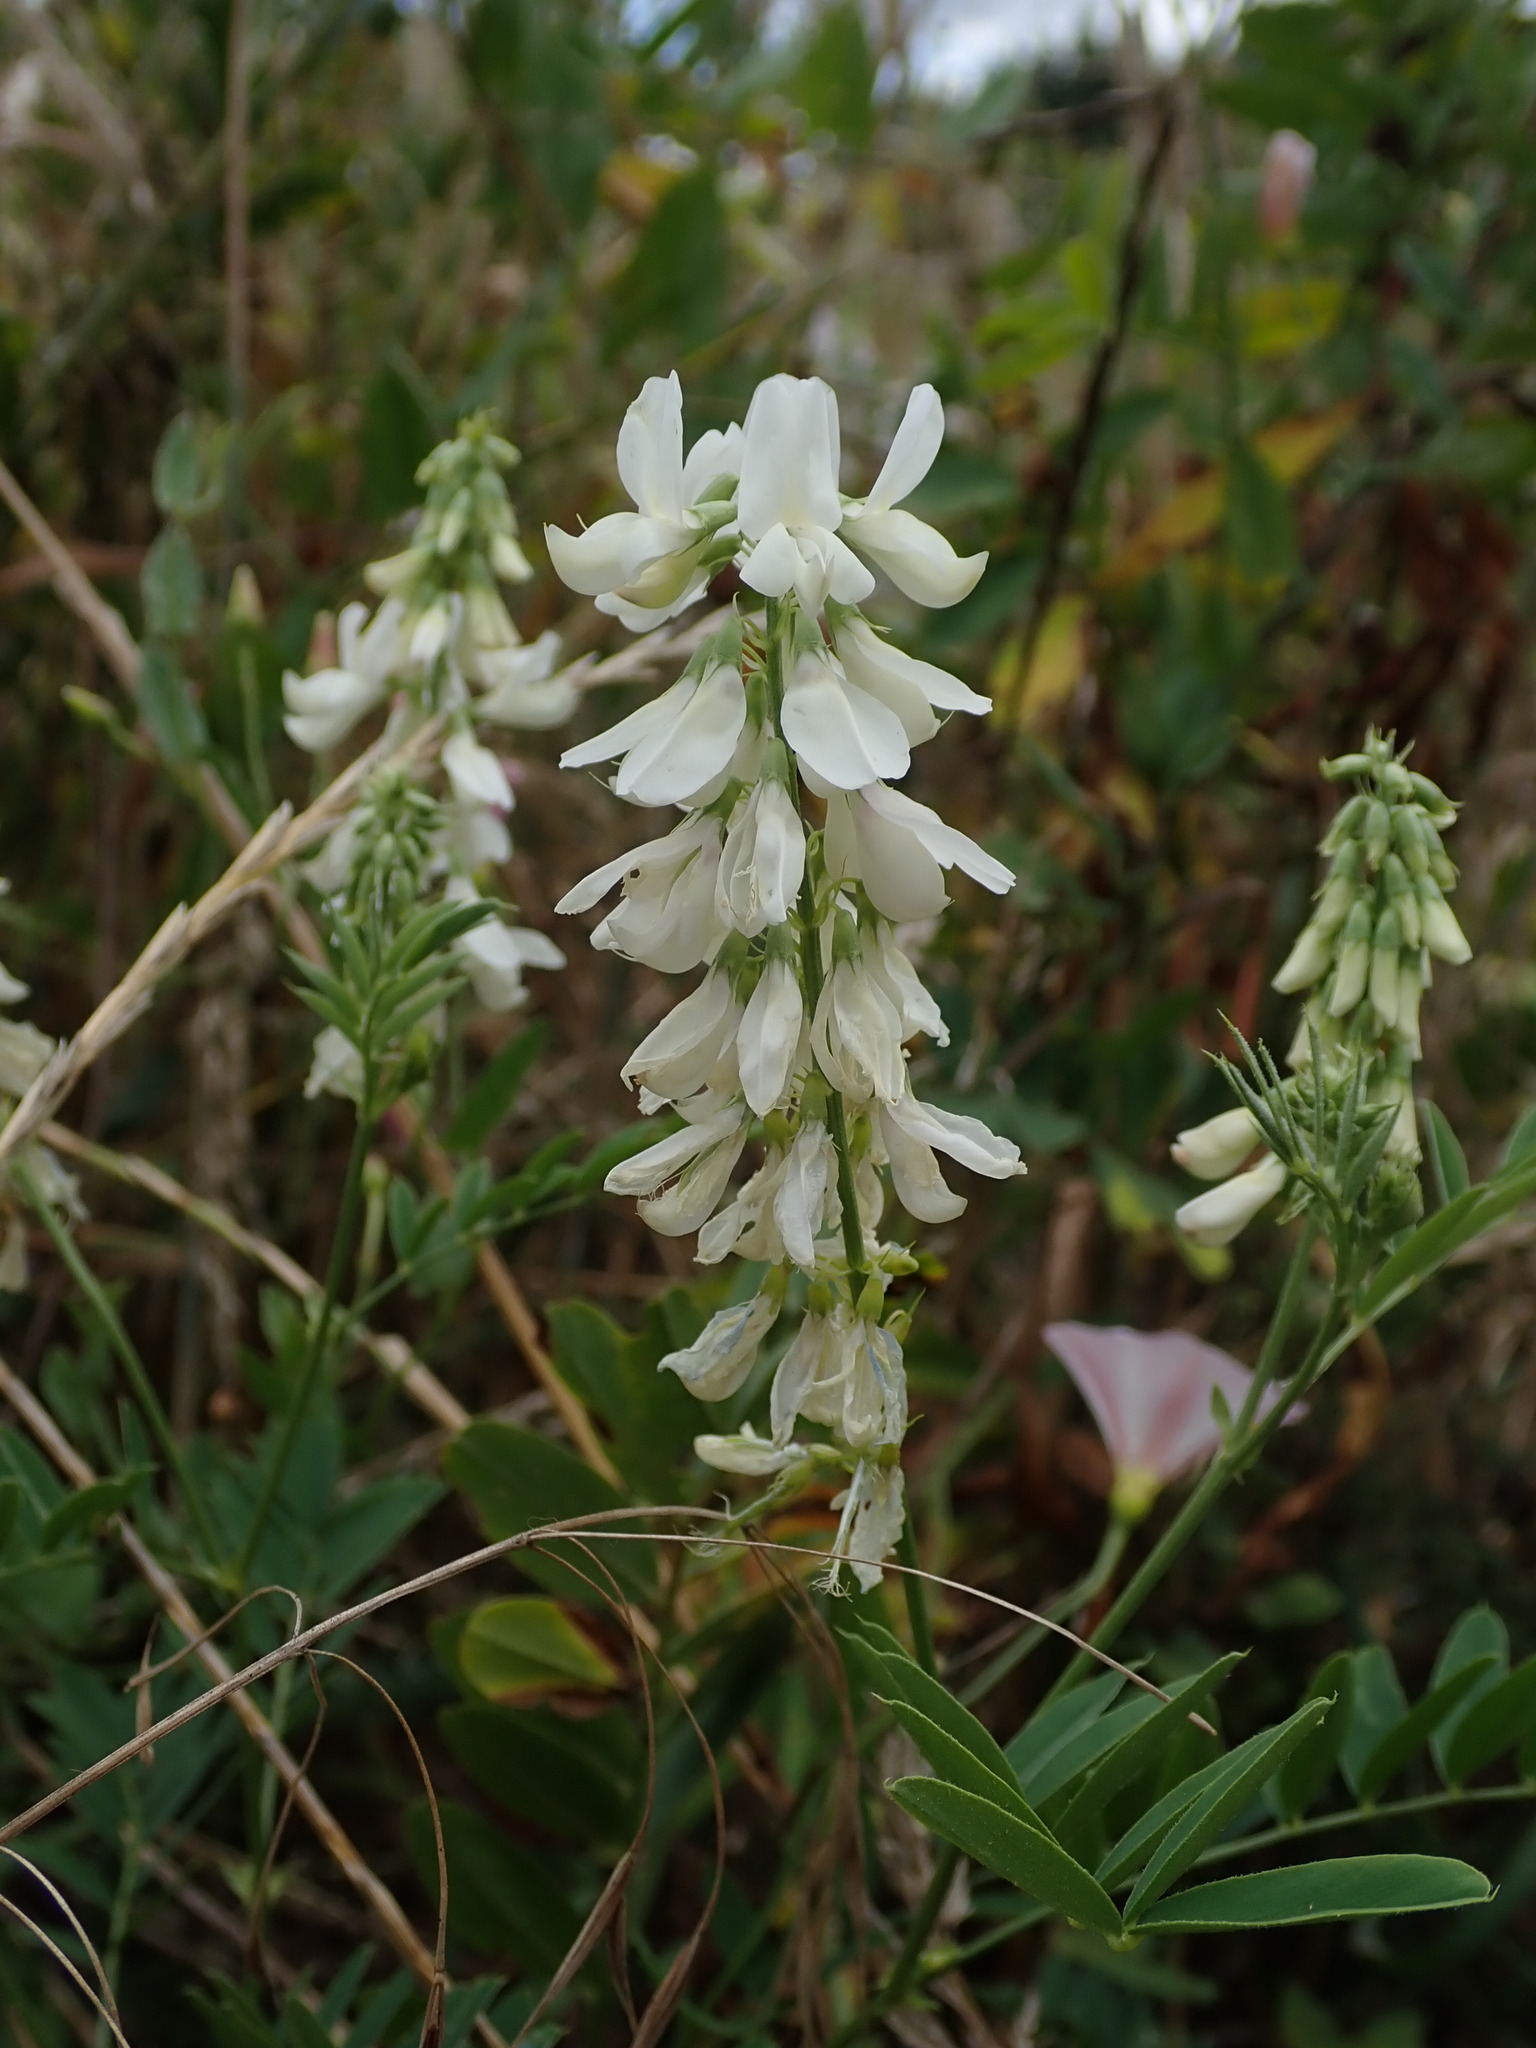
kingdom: Plantae
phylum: Tracheophyta
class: Magnoliopsida
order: Fabales
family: Fabaceae
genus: Galega
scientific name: Galega officinalis
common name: Goat's-rue
